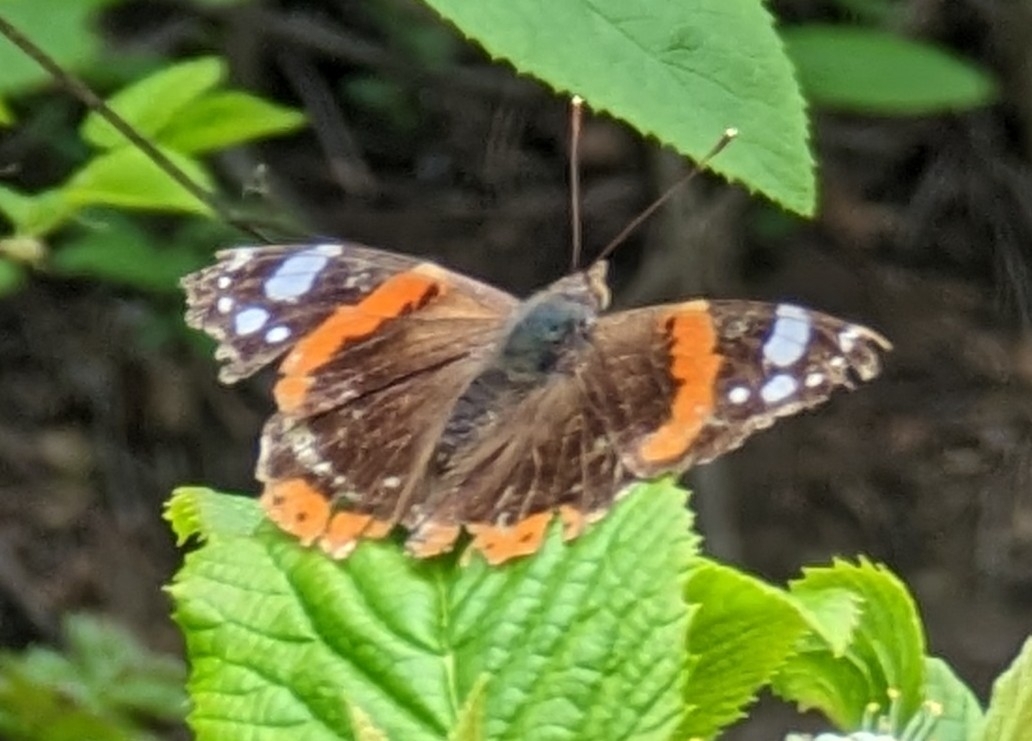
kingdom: Animalia
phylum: Arthropoda
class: Insecta
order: Lepidoptera
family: Nymphalidae
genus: Vanessa
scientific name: Vanessa atalanta
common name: Red admiral
